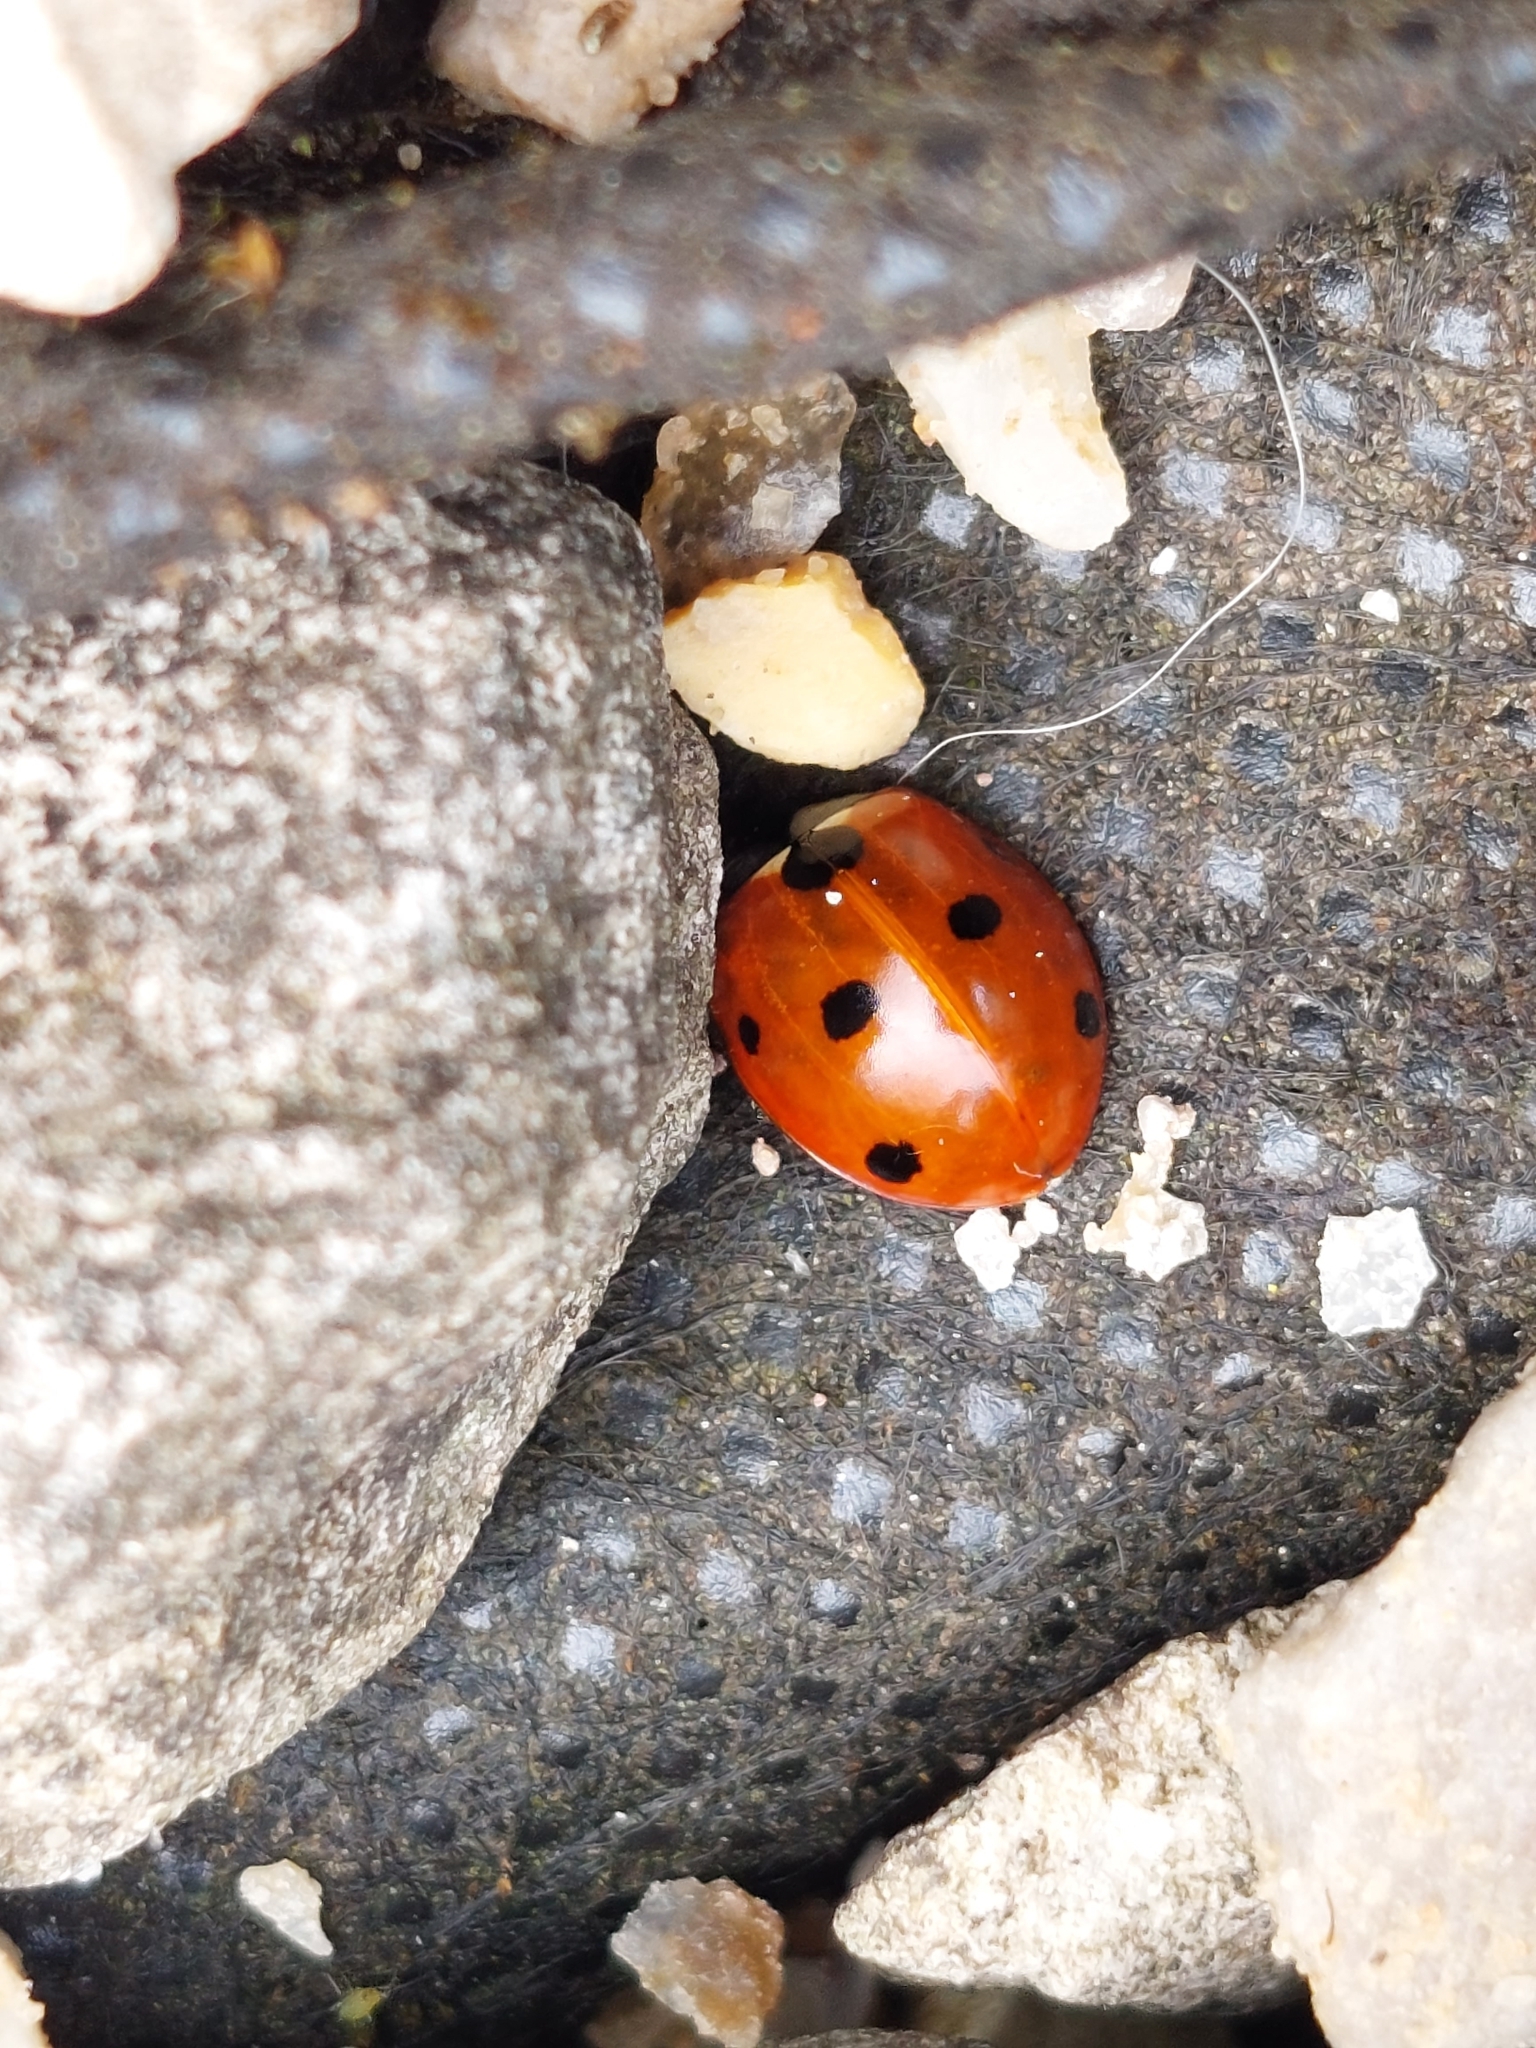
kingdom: Animalia
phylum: Arthropoda
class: Insecta
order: Coleoptera
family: Coccinellidae
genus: Coccinella
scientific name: Coccinella septempunctata
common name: Sevenspotted lady beetle
